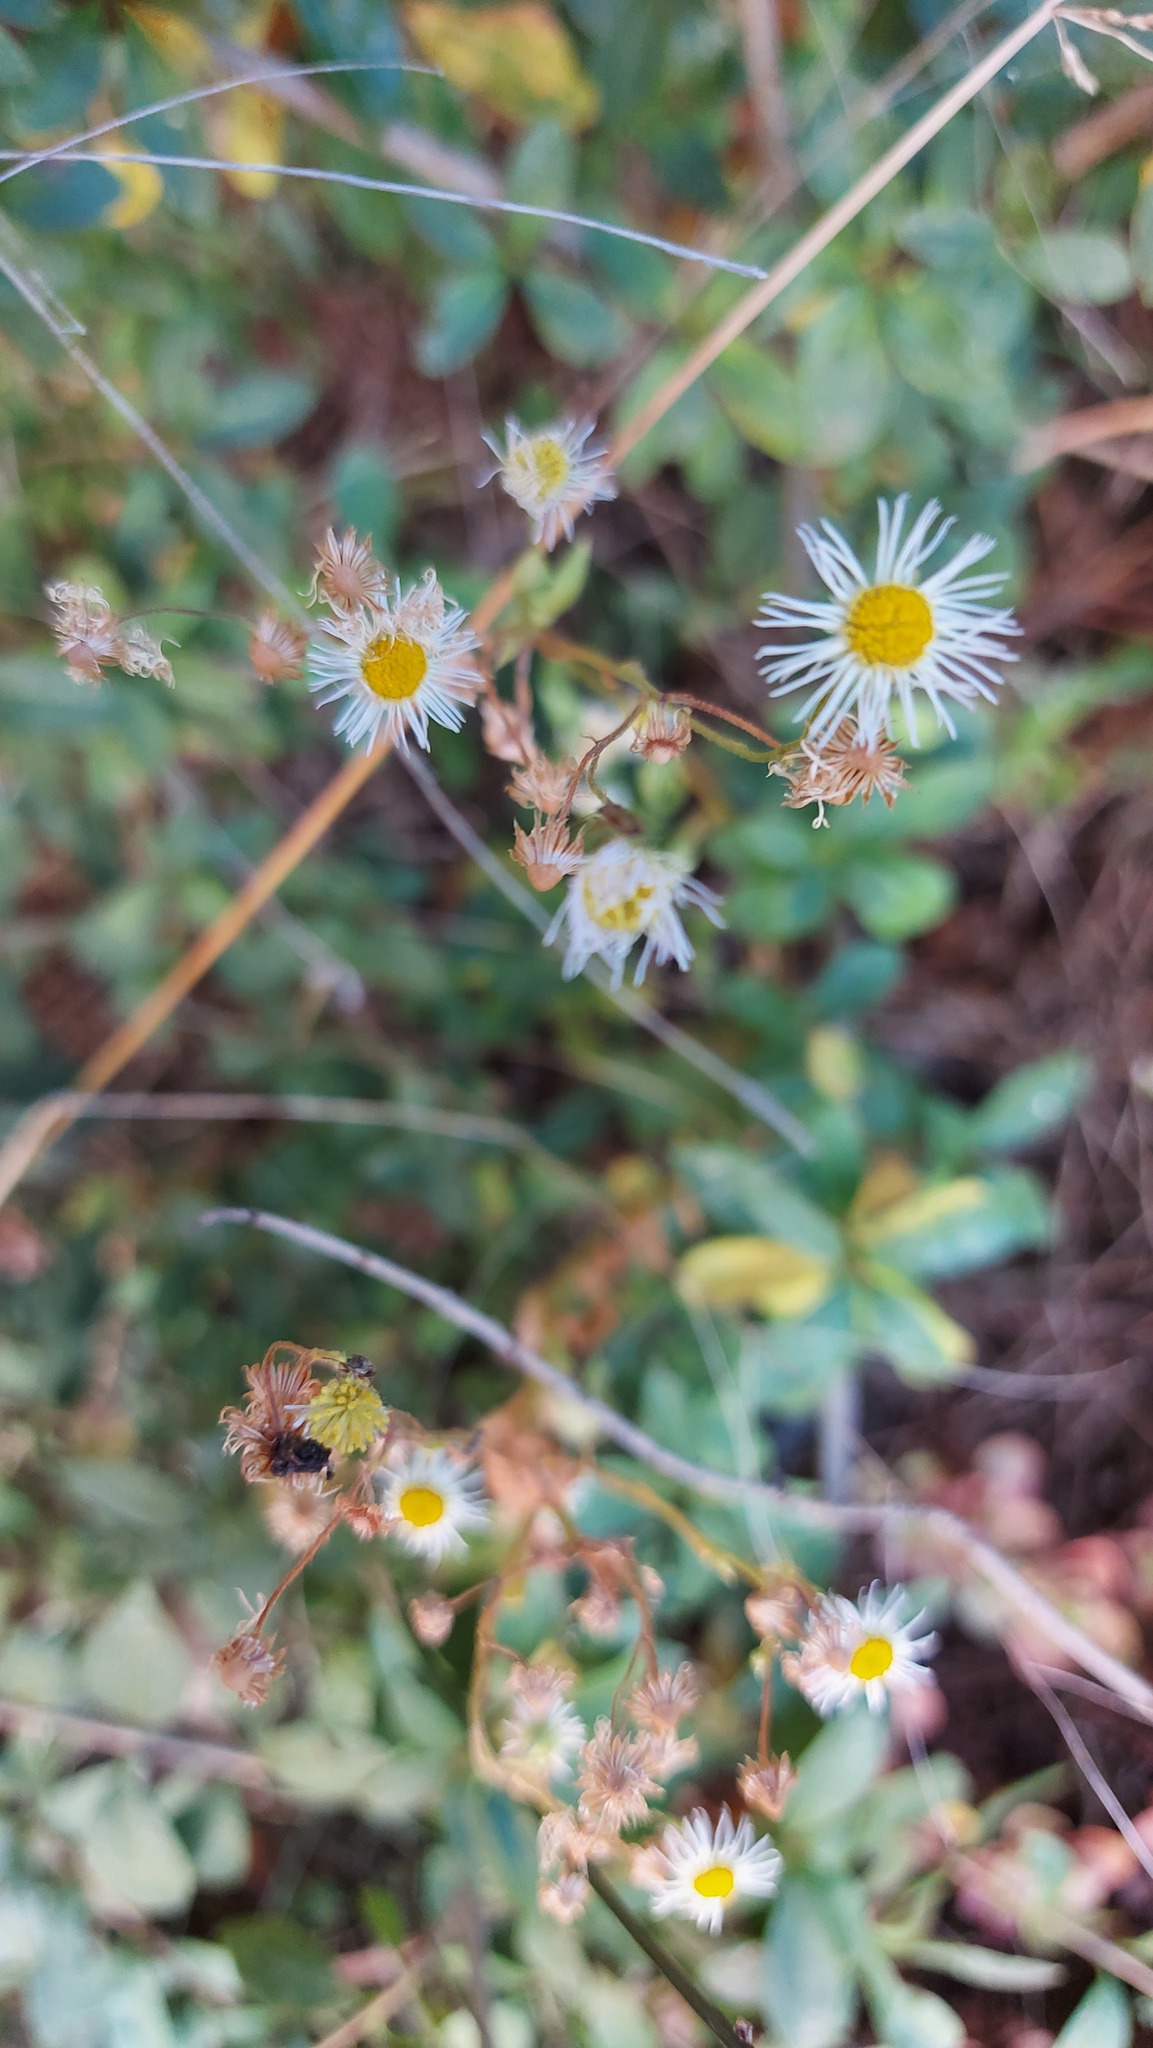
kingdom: Plantae
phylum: Tracheophyta
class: Magnoliopsida
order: Asterales
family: Asteraceae
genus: Erigeron
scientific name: Erigeron karvinskianus
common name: Mexican fleabane
